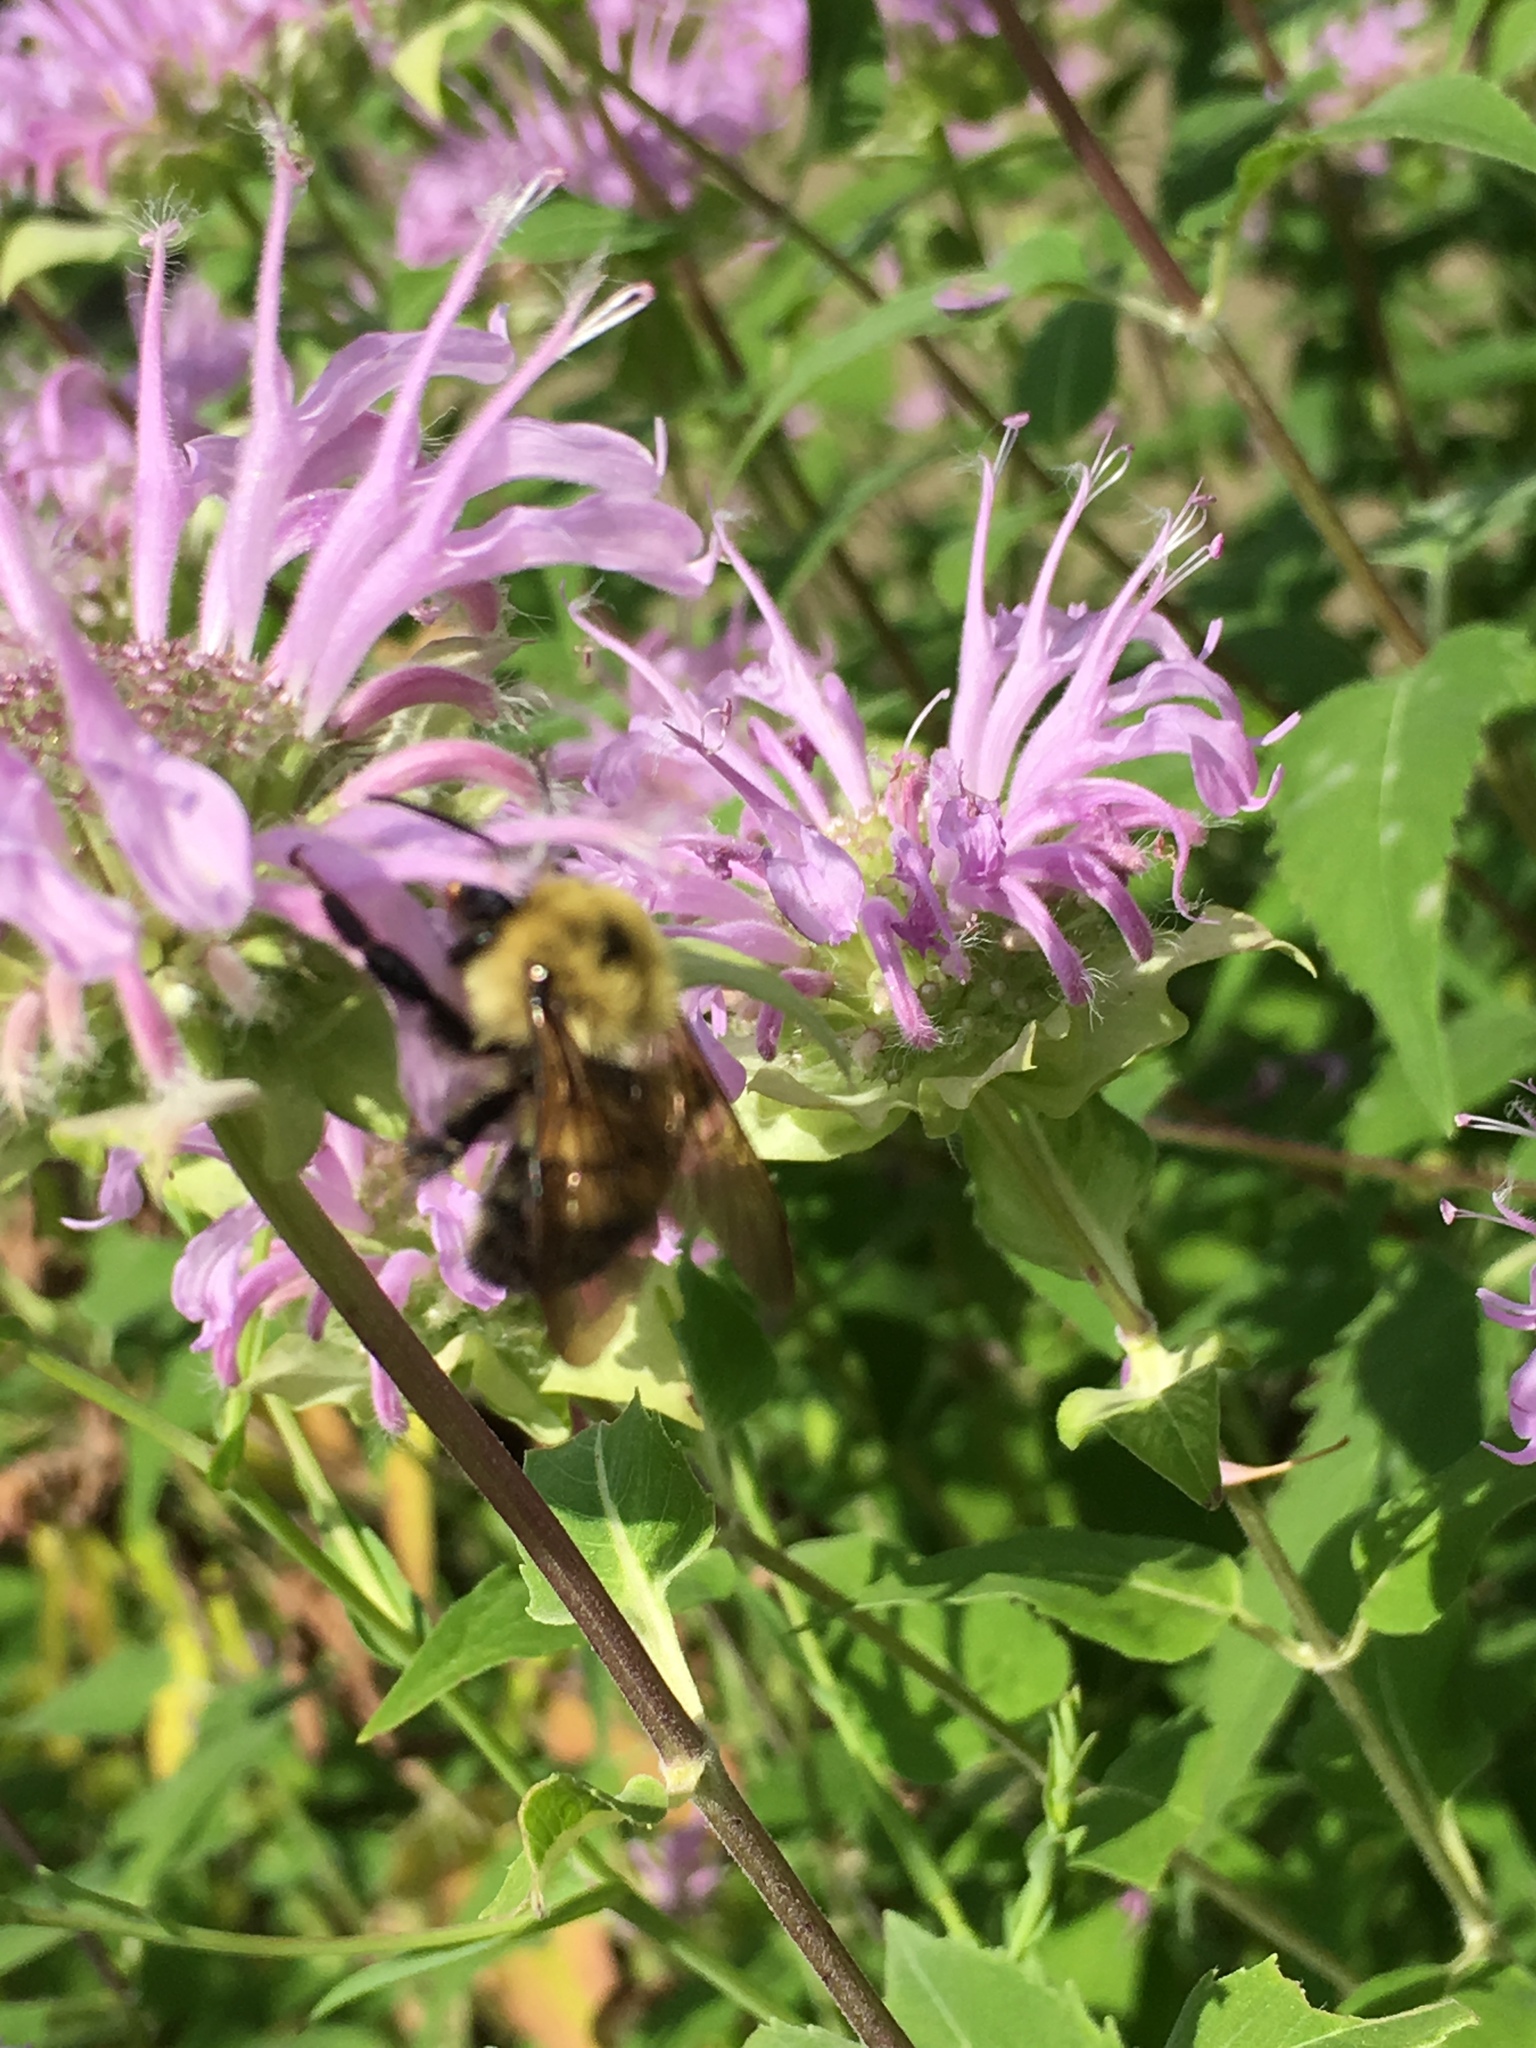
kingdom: Animalia
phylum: Arthropoda
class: Insecta
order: Hymenoptera
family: Apidae
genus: Bombus
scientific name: Bombus bimaculatus
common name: Two-spotted bumble bee
